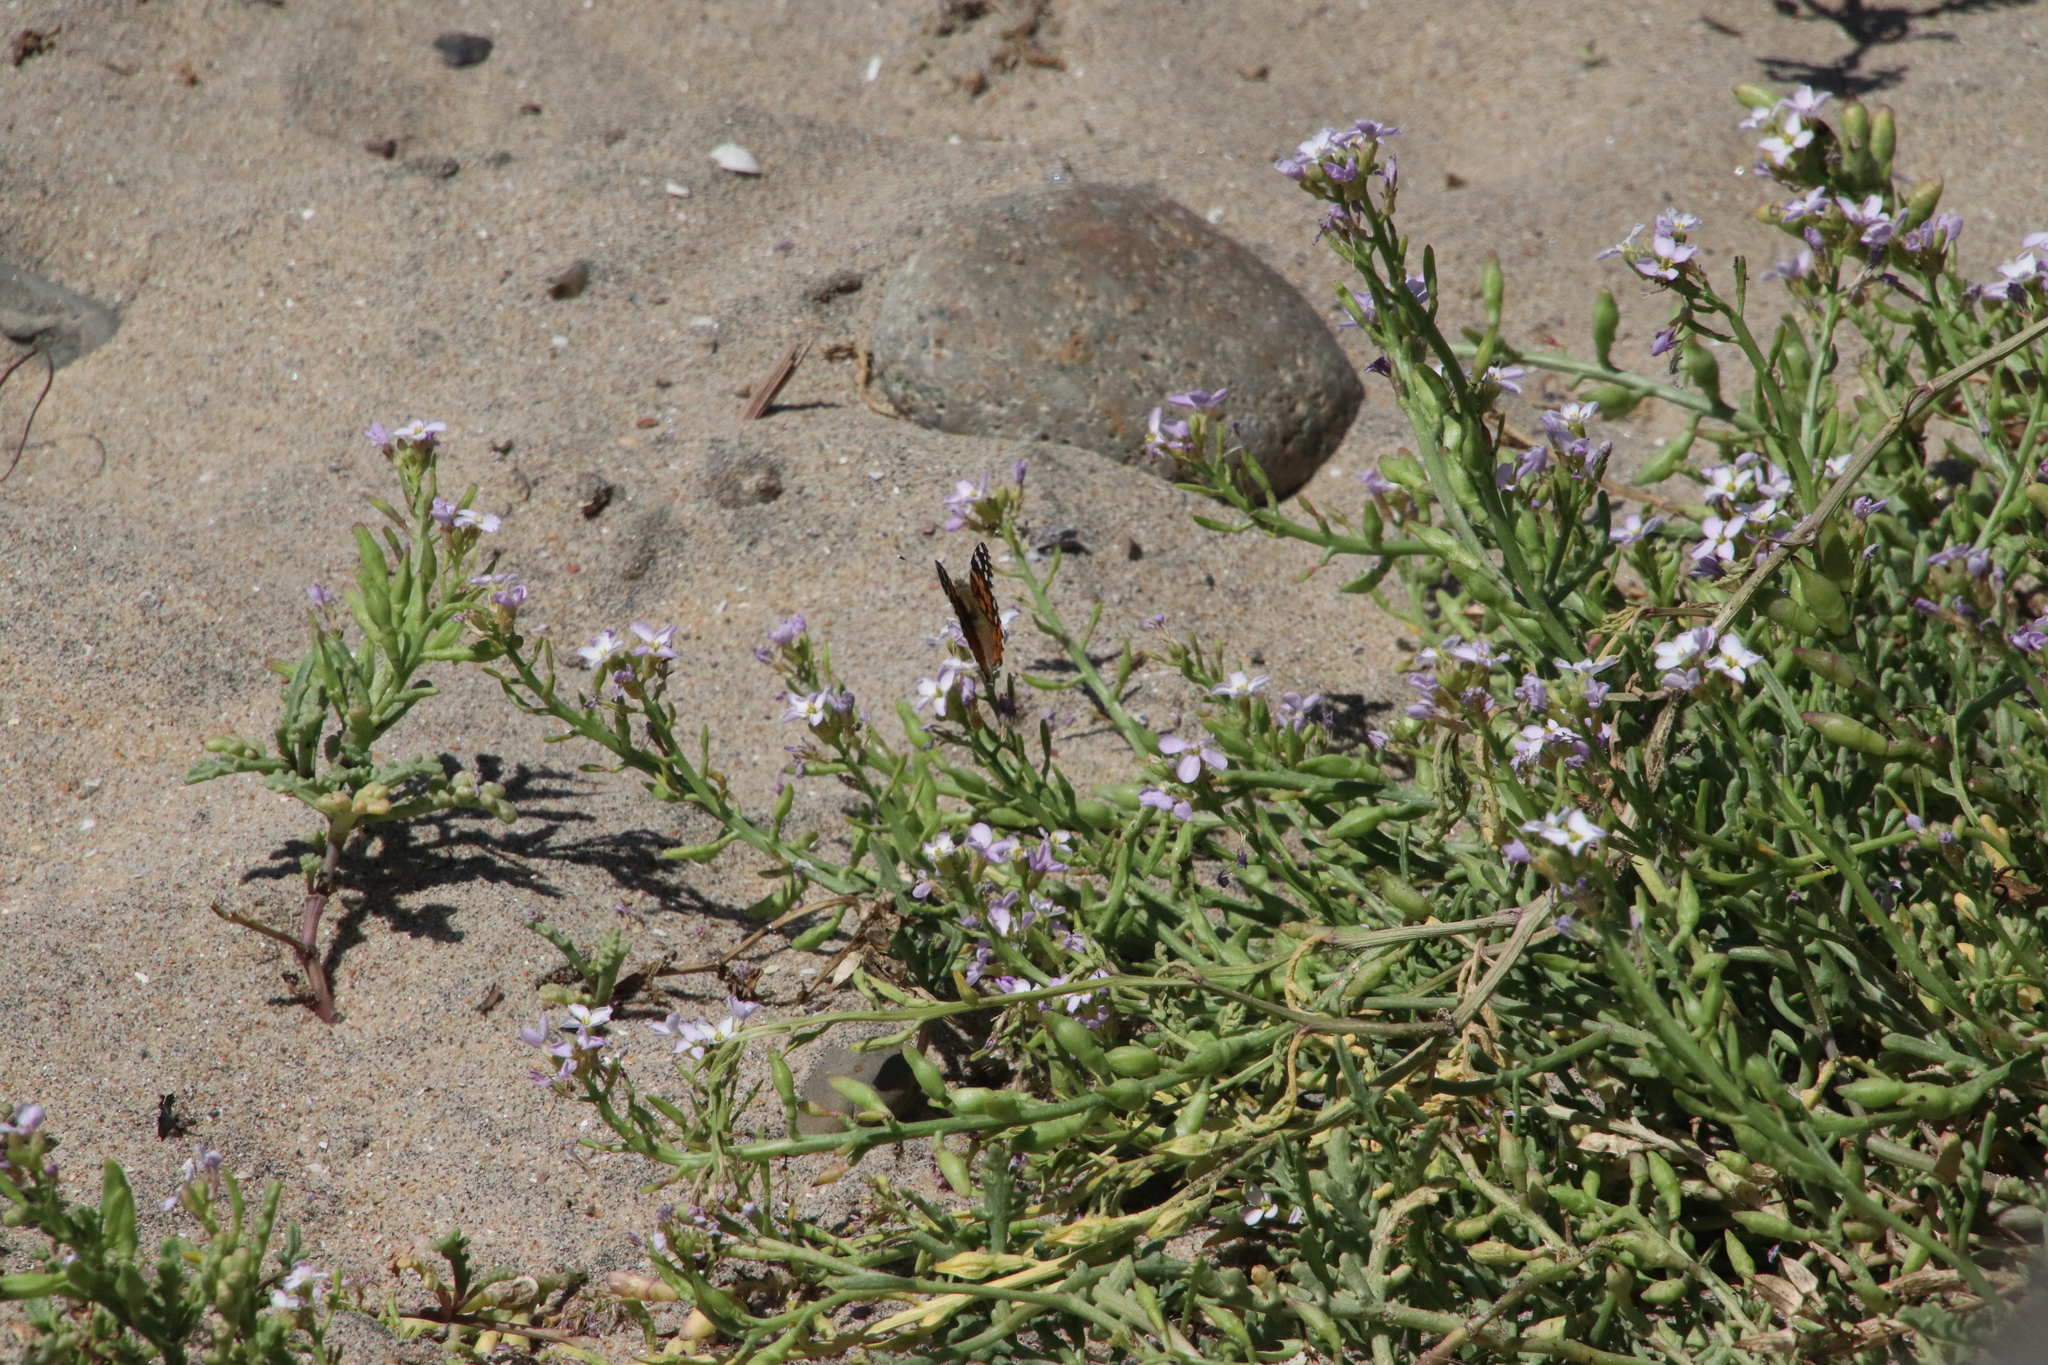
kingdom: Plantae
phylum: Tracheophyta
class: Magnoliopsida
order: Brassicales
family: Brassicaceae
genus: Cakile
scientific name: Cakile maritima
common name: Sea rocket
